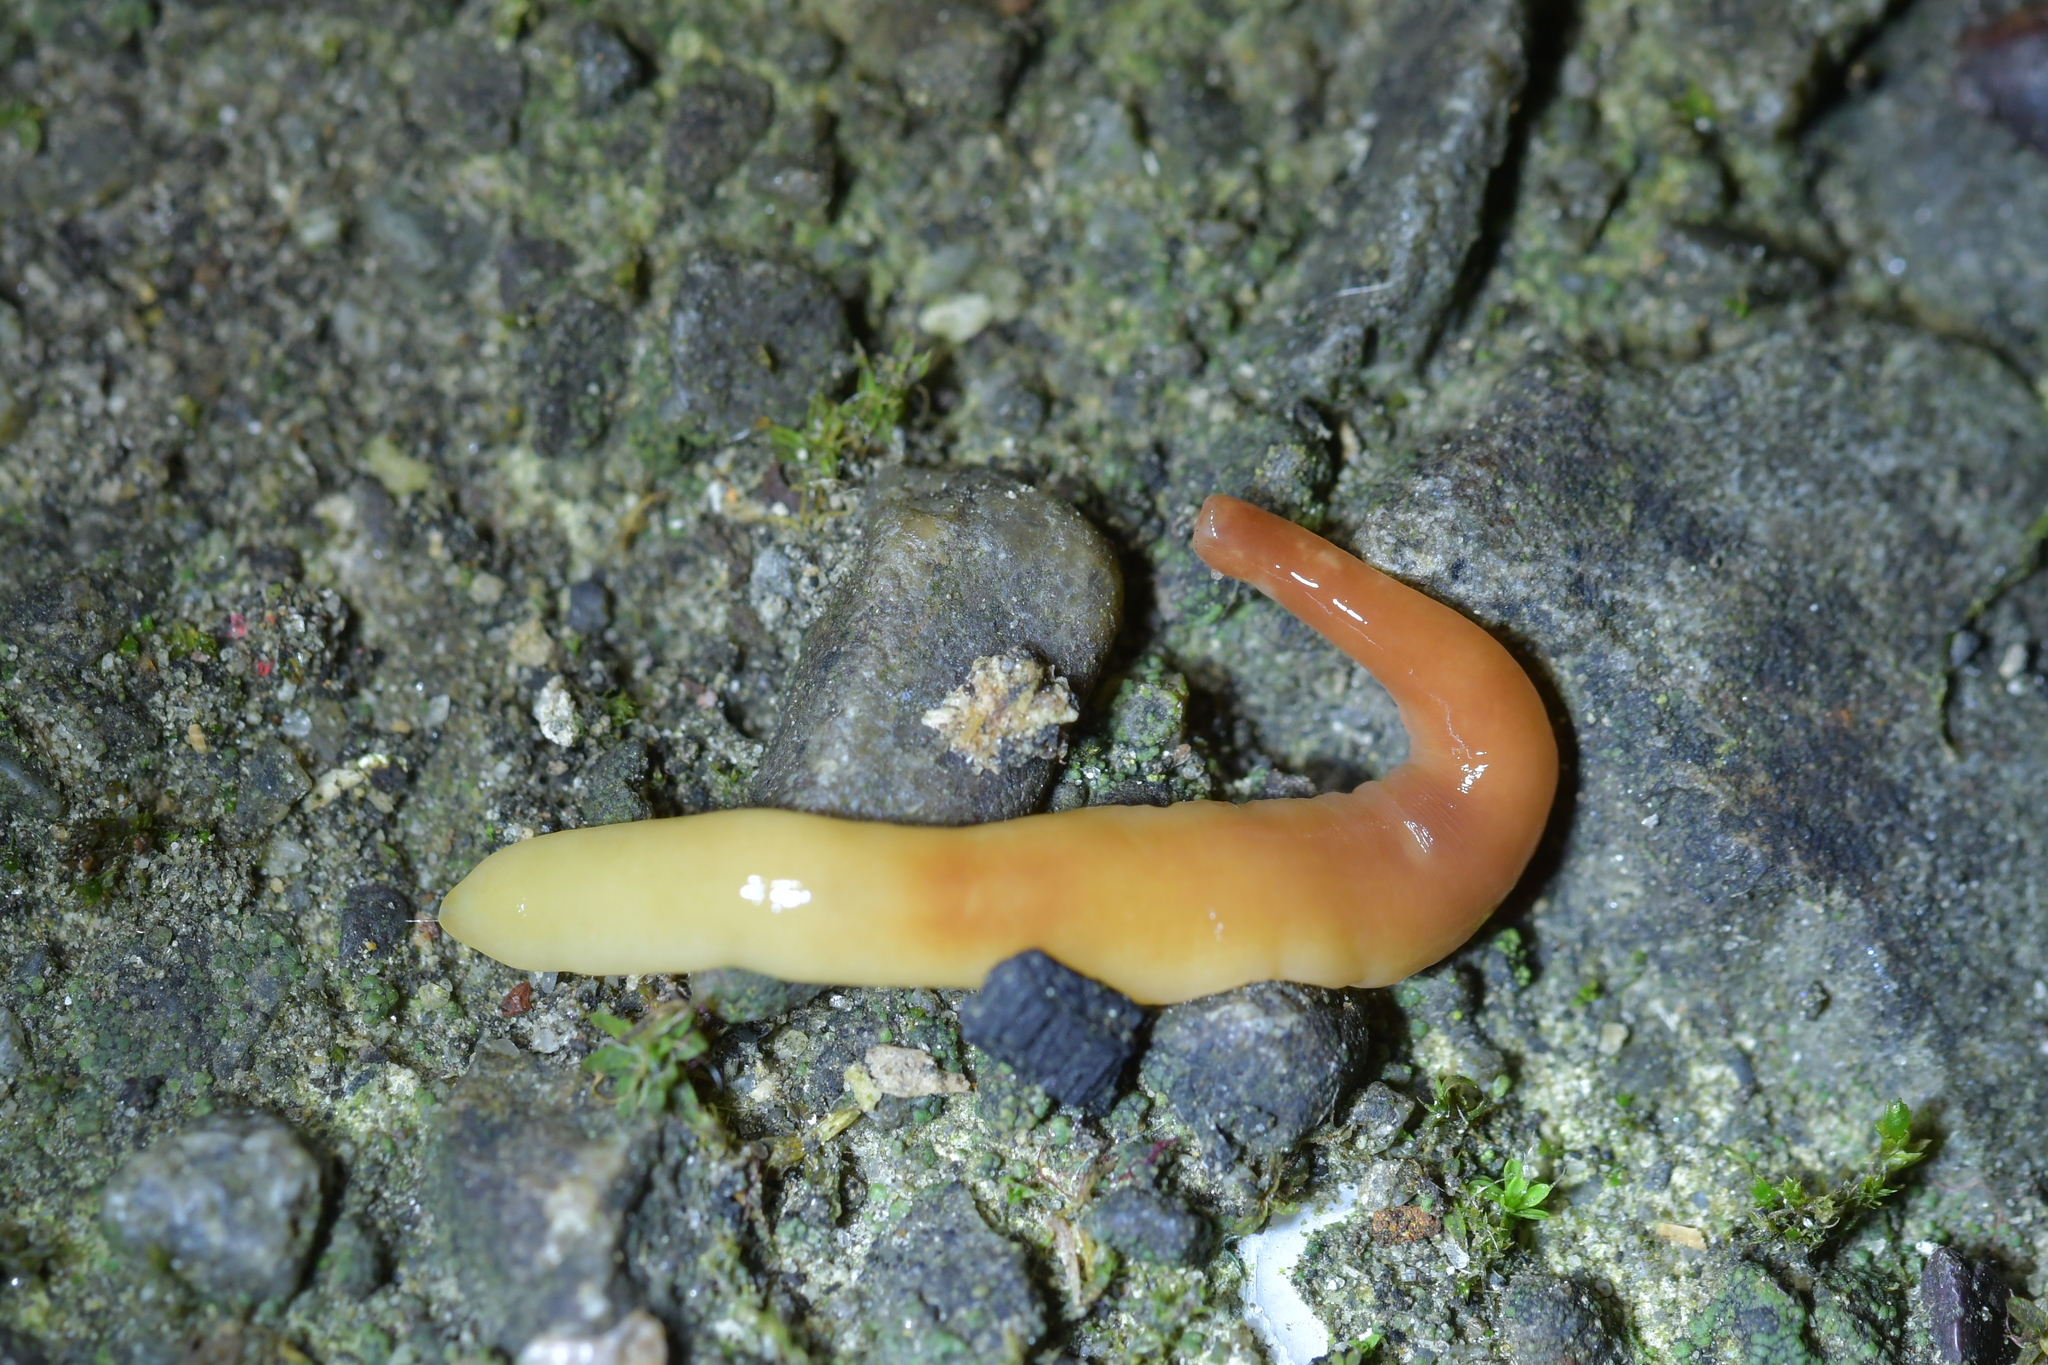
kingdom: Animalia
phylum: Platyhelminthes
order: Tricladida
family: Geoplanidae
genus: Australoplana
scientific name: Australoplana sanguinea
